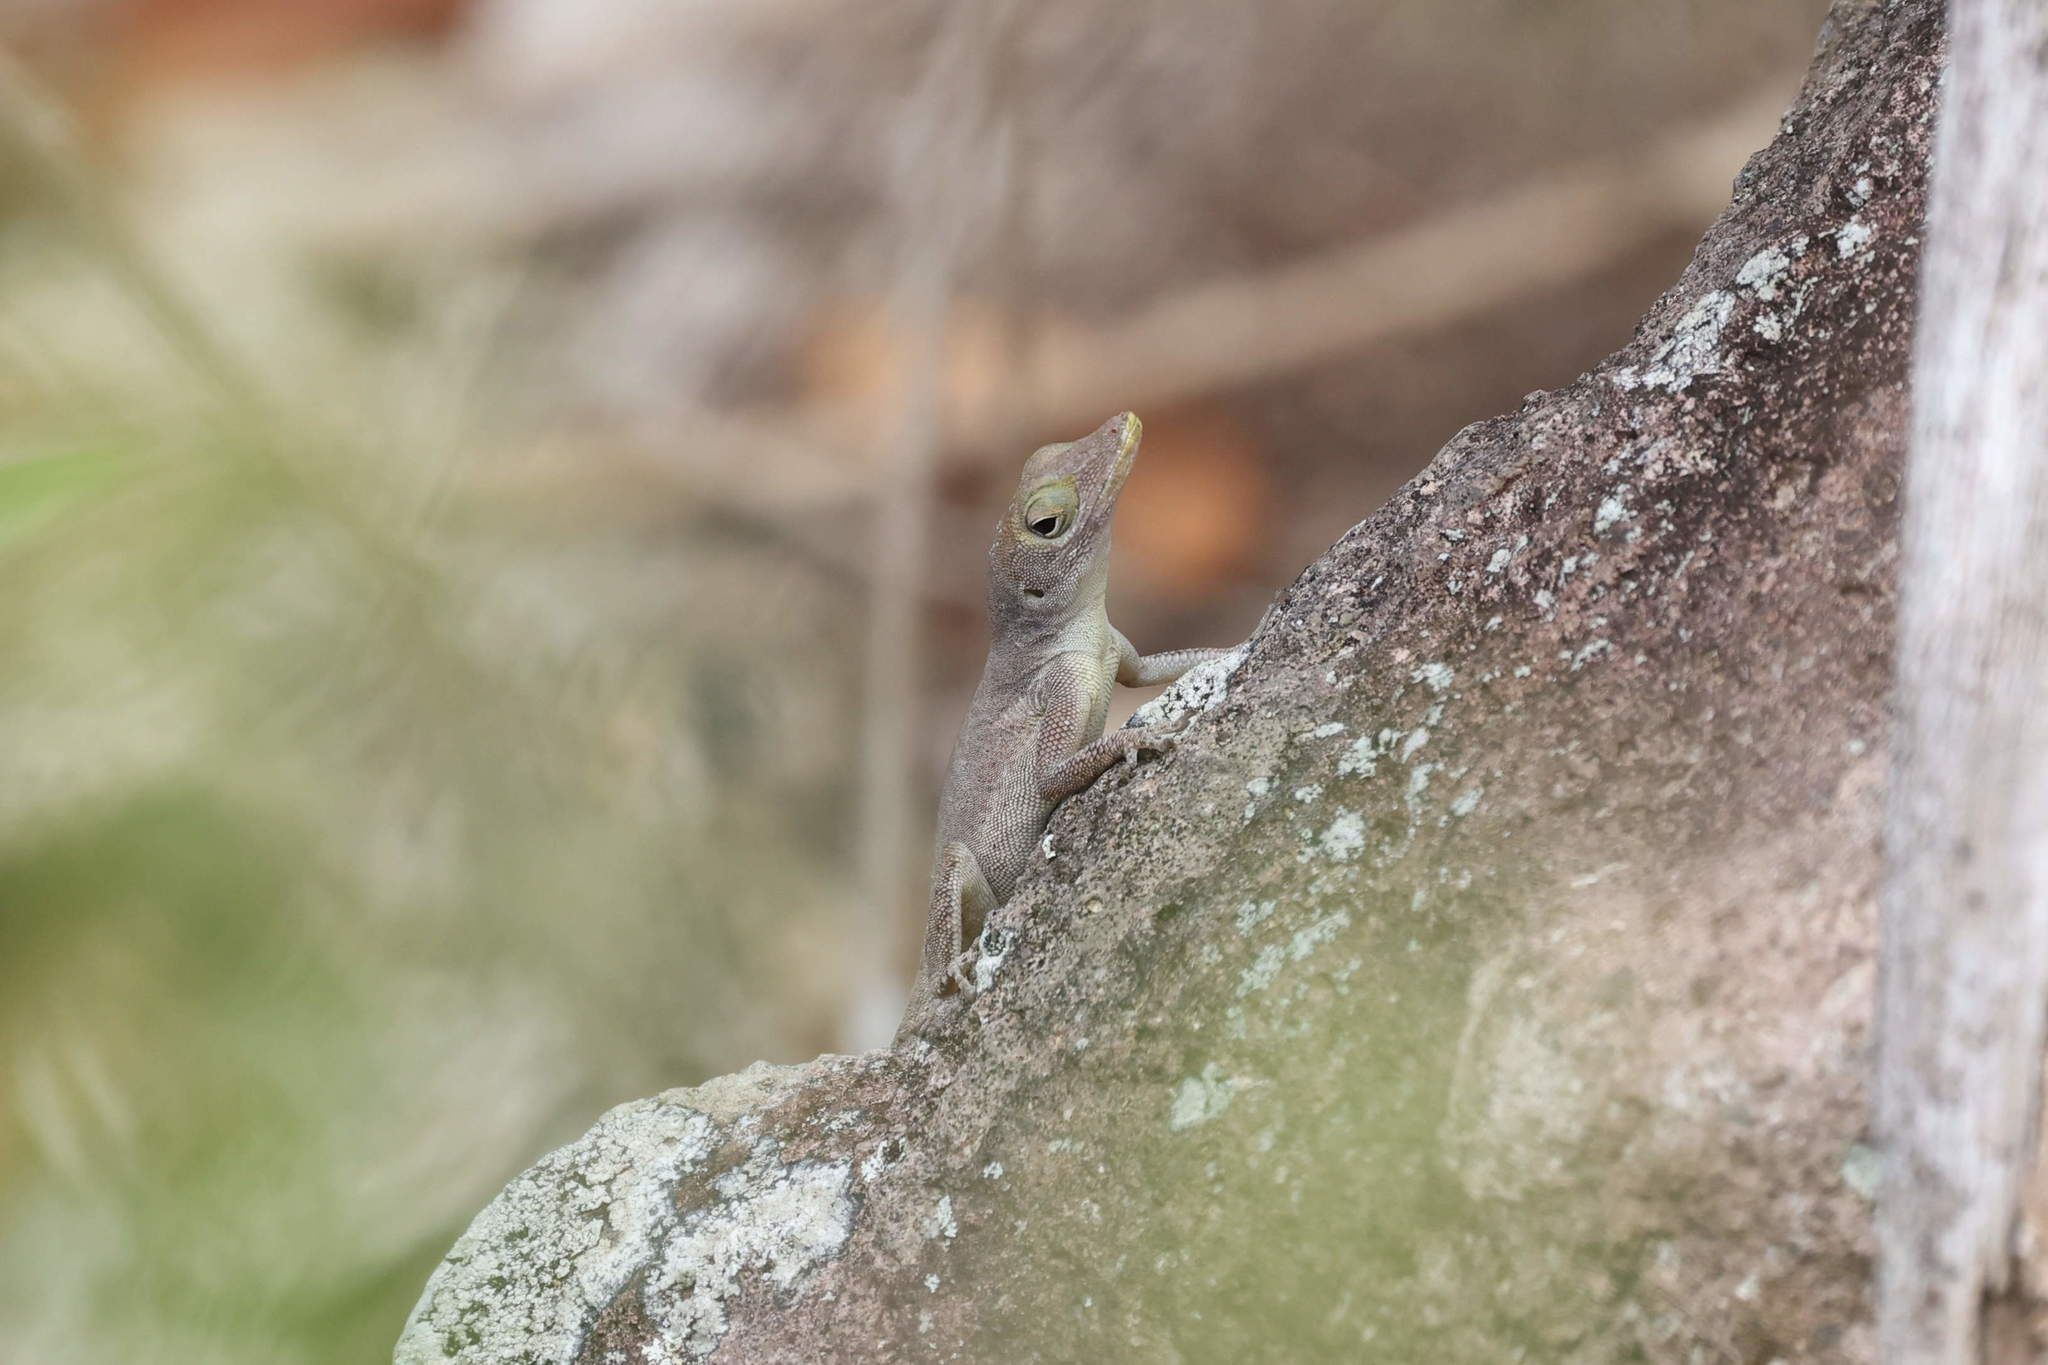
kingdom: Animalia
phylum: Chordata
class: Squamata
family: Dactyloidae
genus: Anolis
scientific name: Anolis marmoratus
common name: Guadeloupe anole
